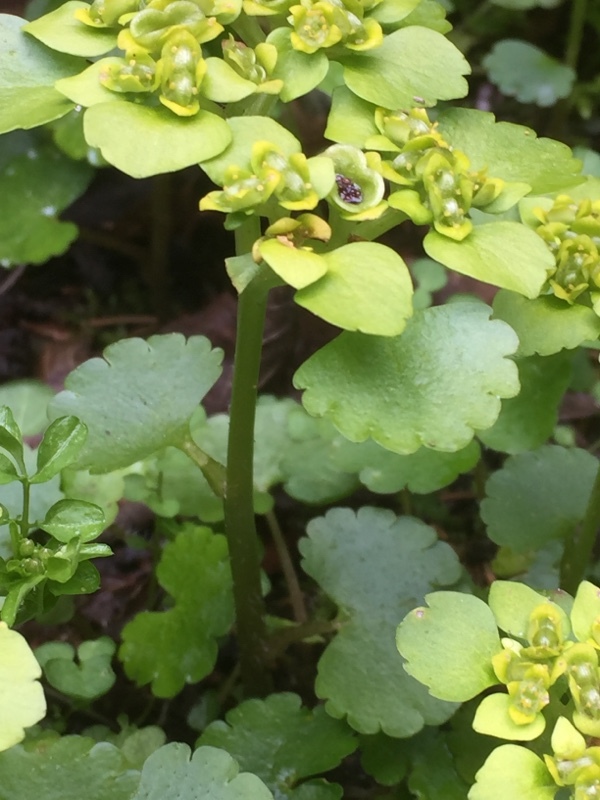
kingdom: Plantae
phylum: Tracheophyta
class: Magnoliopsida
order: Saxifragales
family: Saxifragaceae
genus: Chrysosplenium
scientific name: Chrysosplenium alternifolium
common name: Alternate-leaved golden-saxifrage
